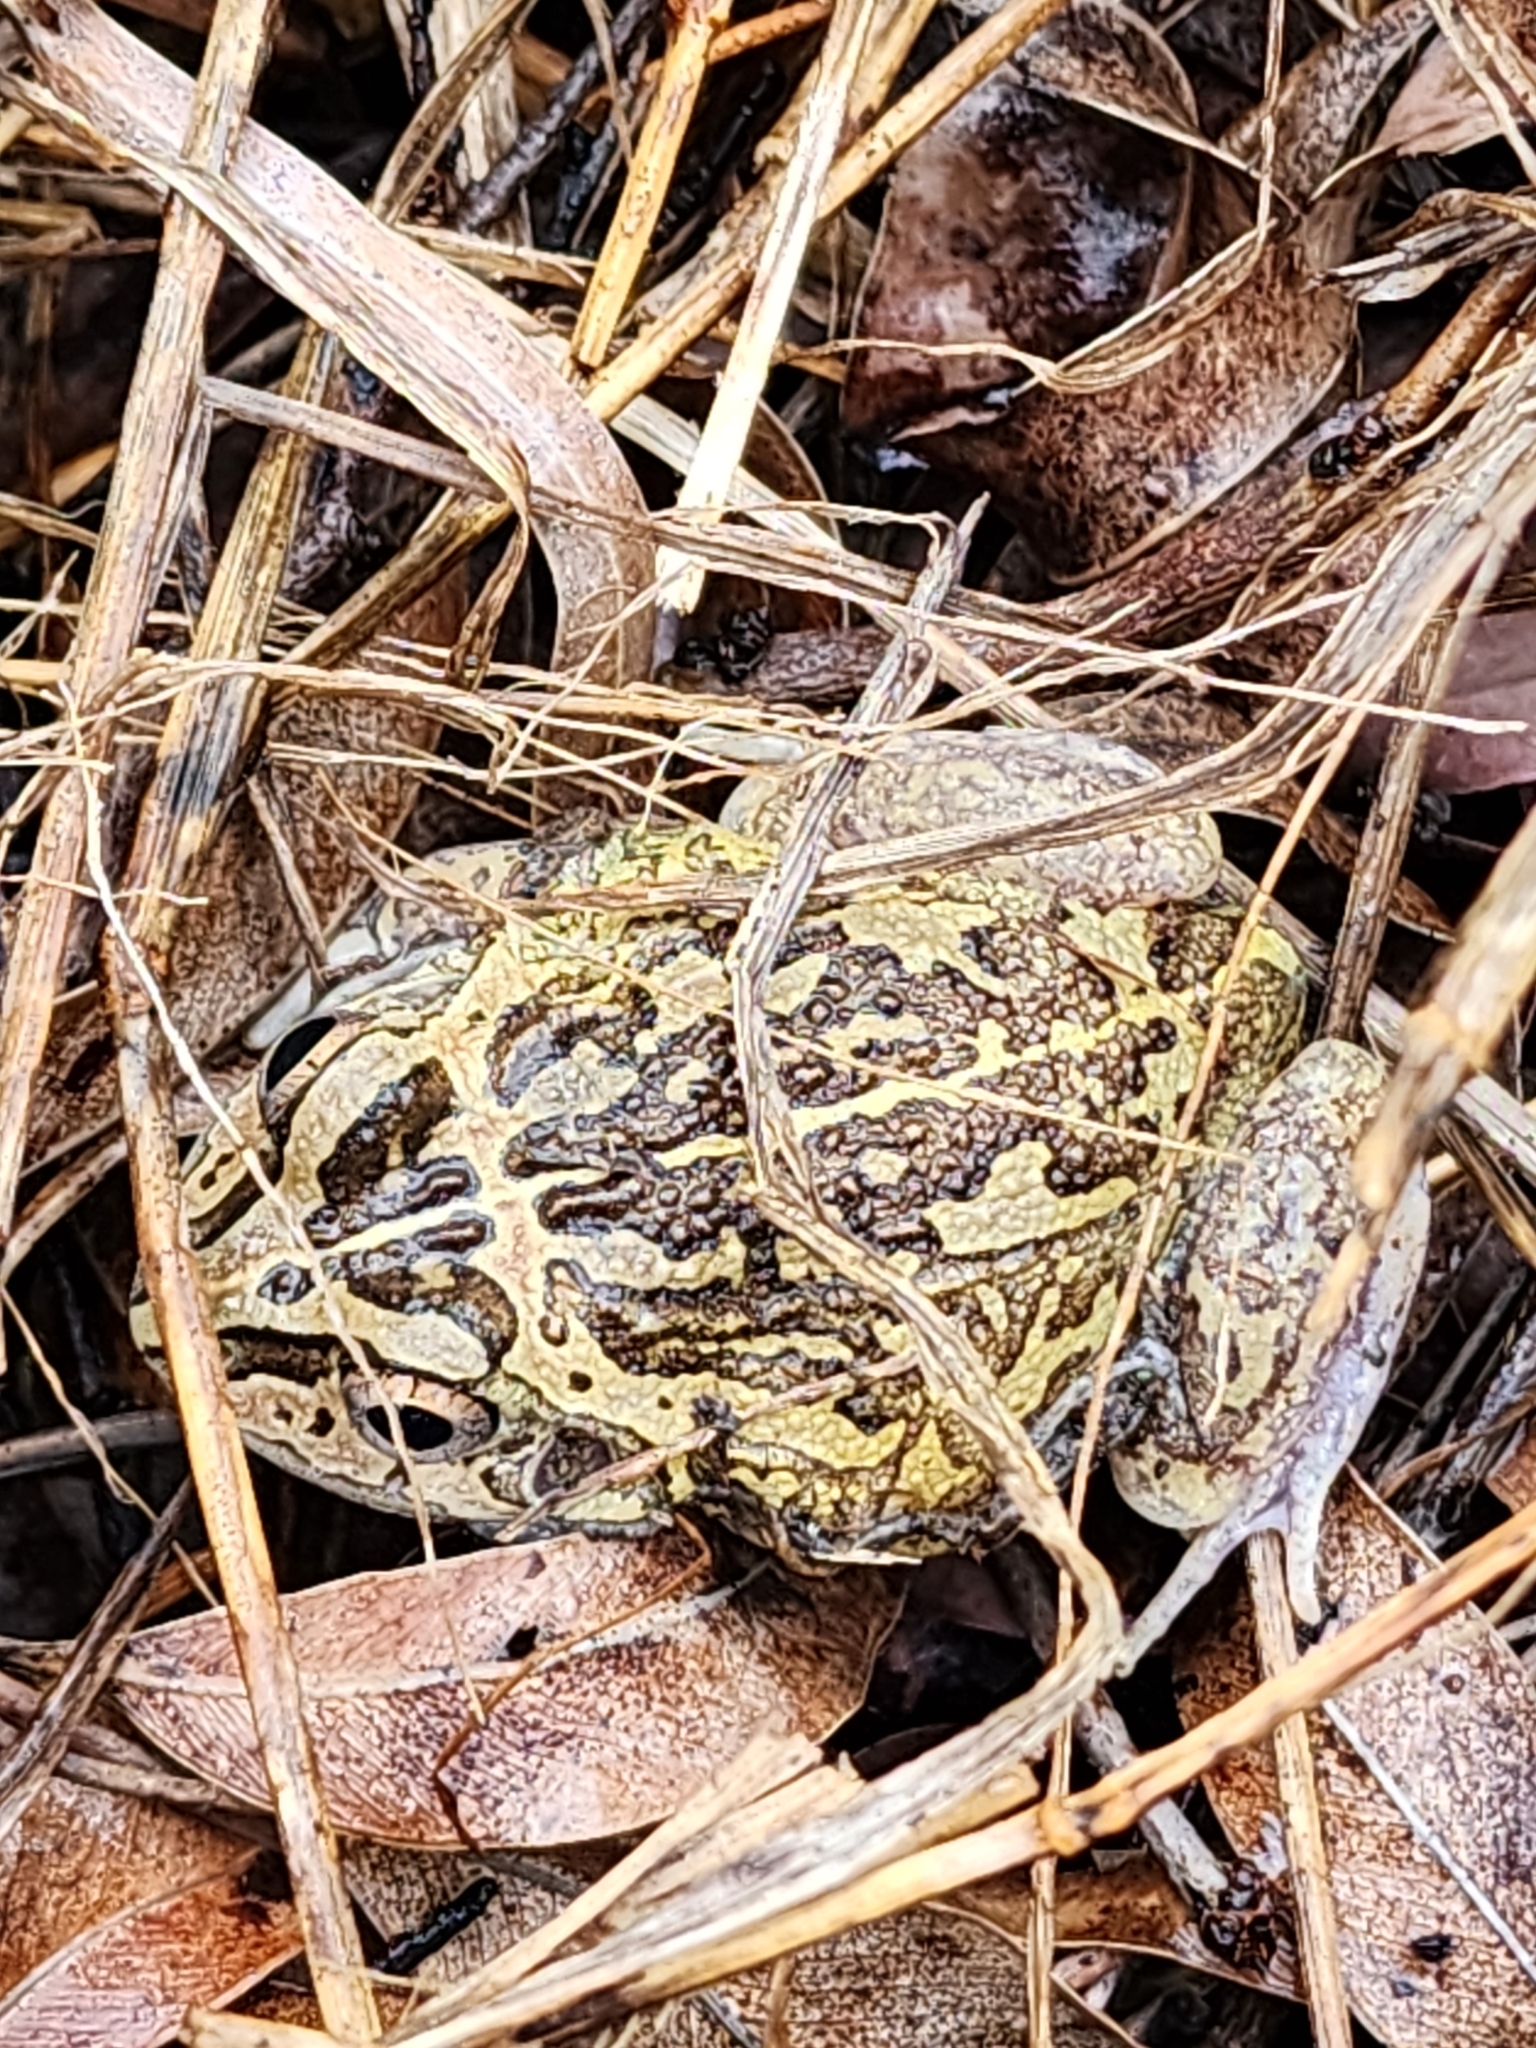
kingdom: Animalia
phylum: Chordata
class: Amphibia
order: Anura
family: Pelodryadidae
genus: Ranoidea
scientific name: Ranoidea brevipes
